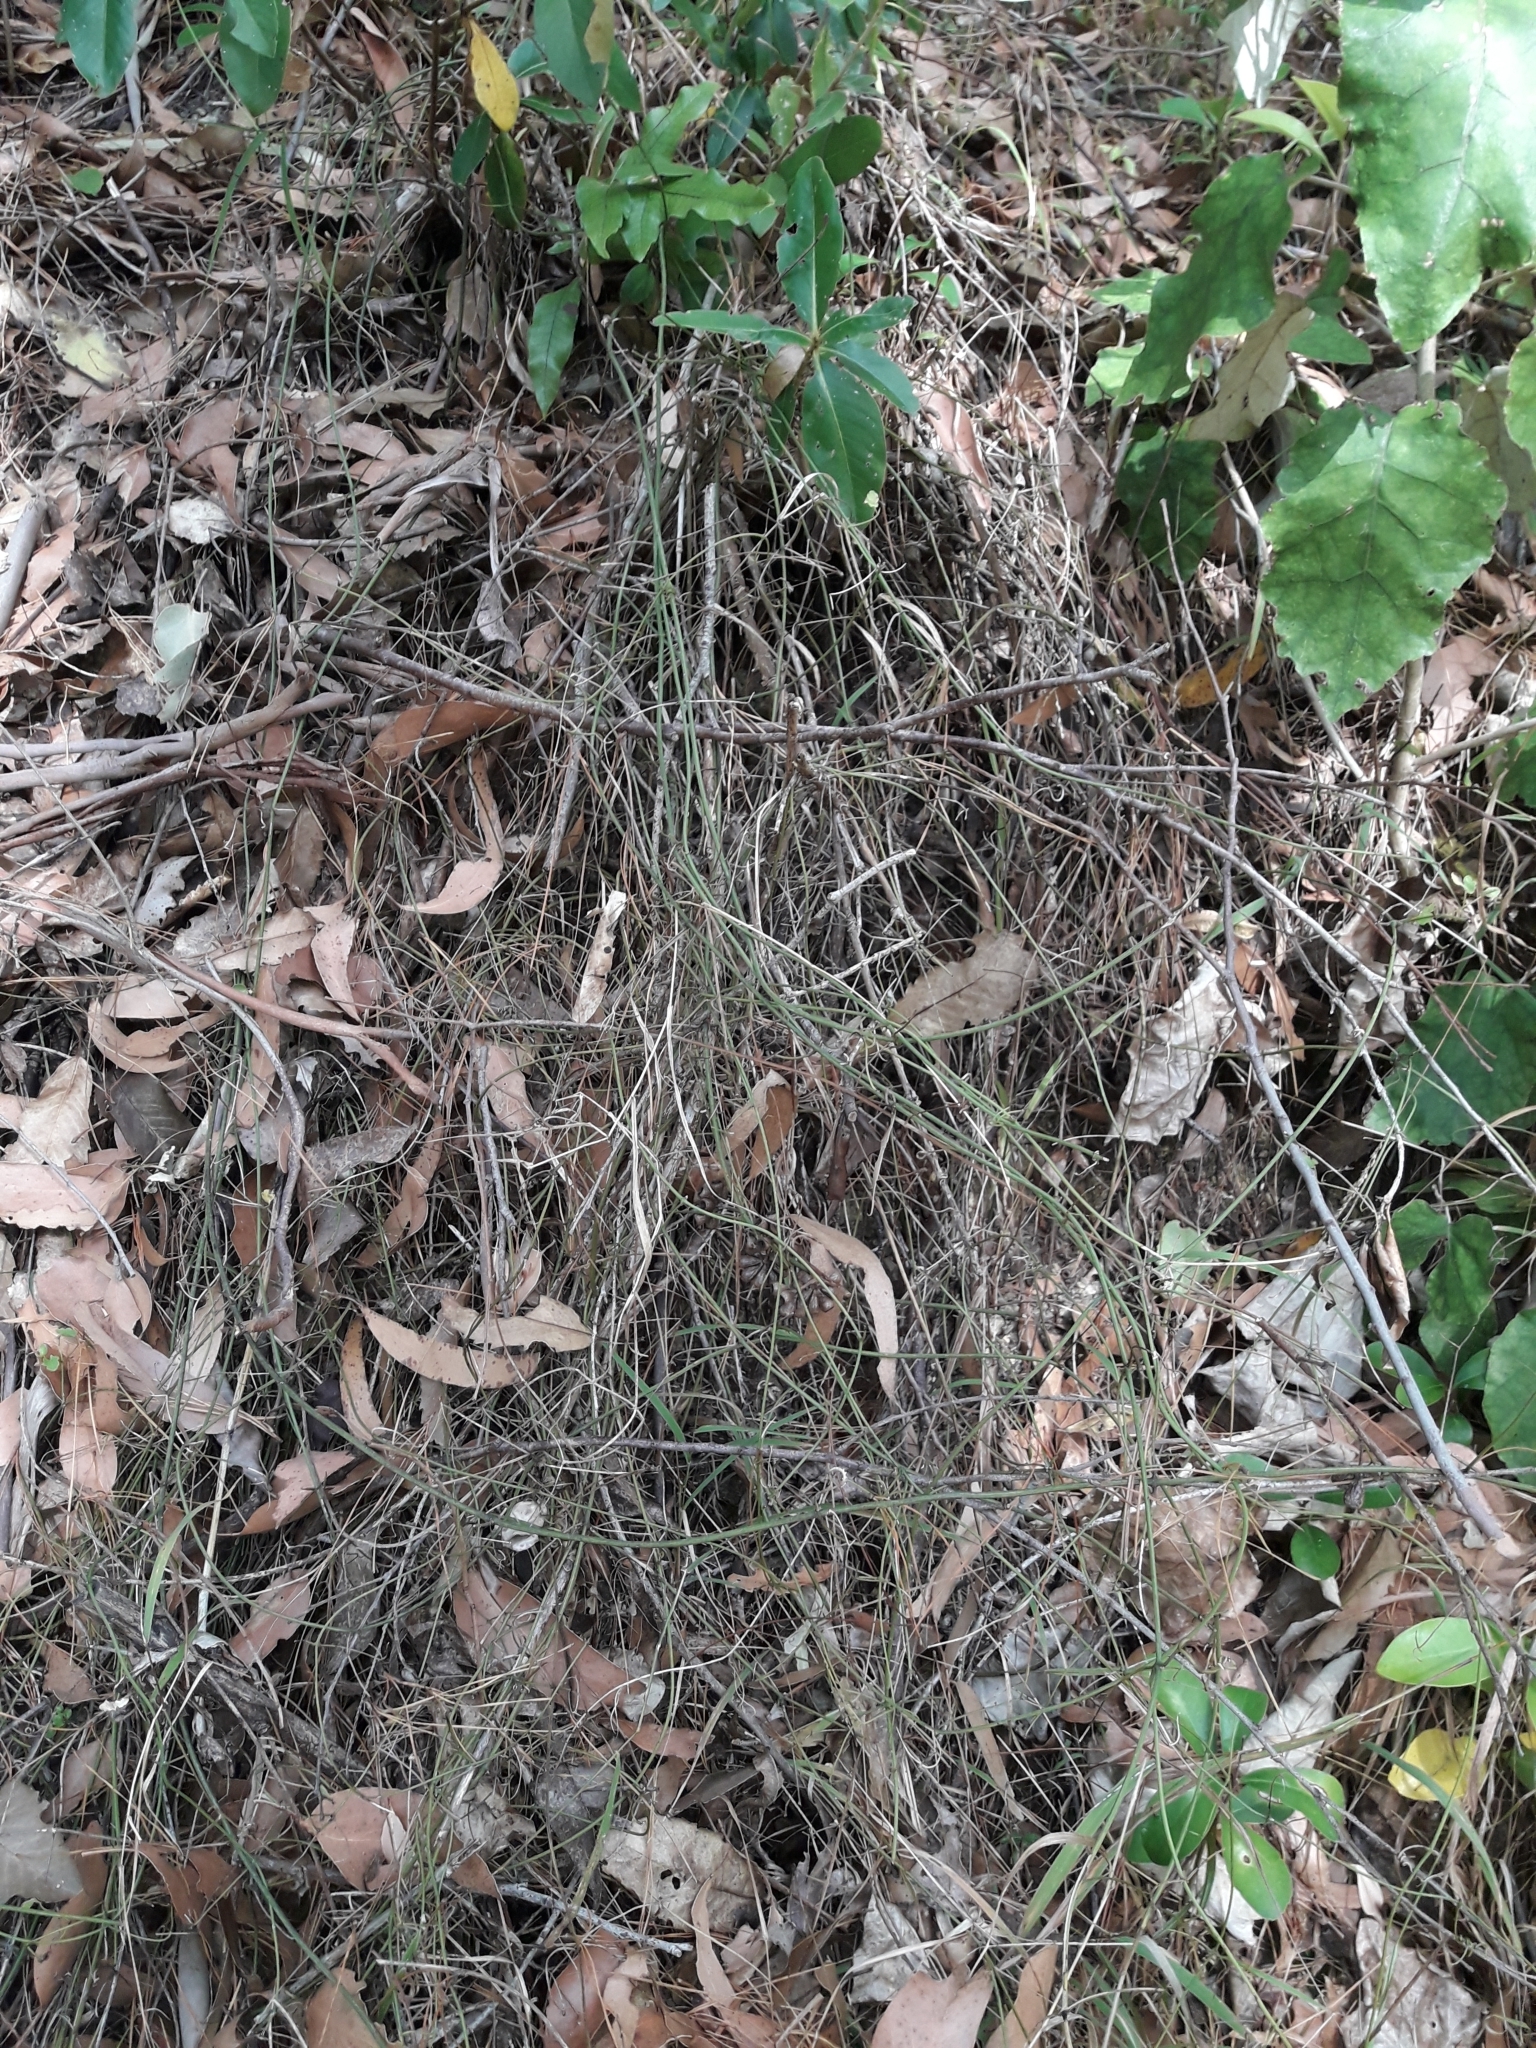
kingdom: Plantae
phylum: Tracheophyta
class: Magnoliopsida
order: Ranunculales
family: Ranunculaceae
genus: Clematis
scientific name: Clematis afoliata
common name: Rush-stem clematis
